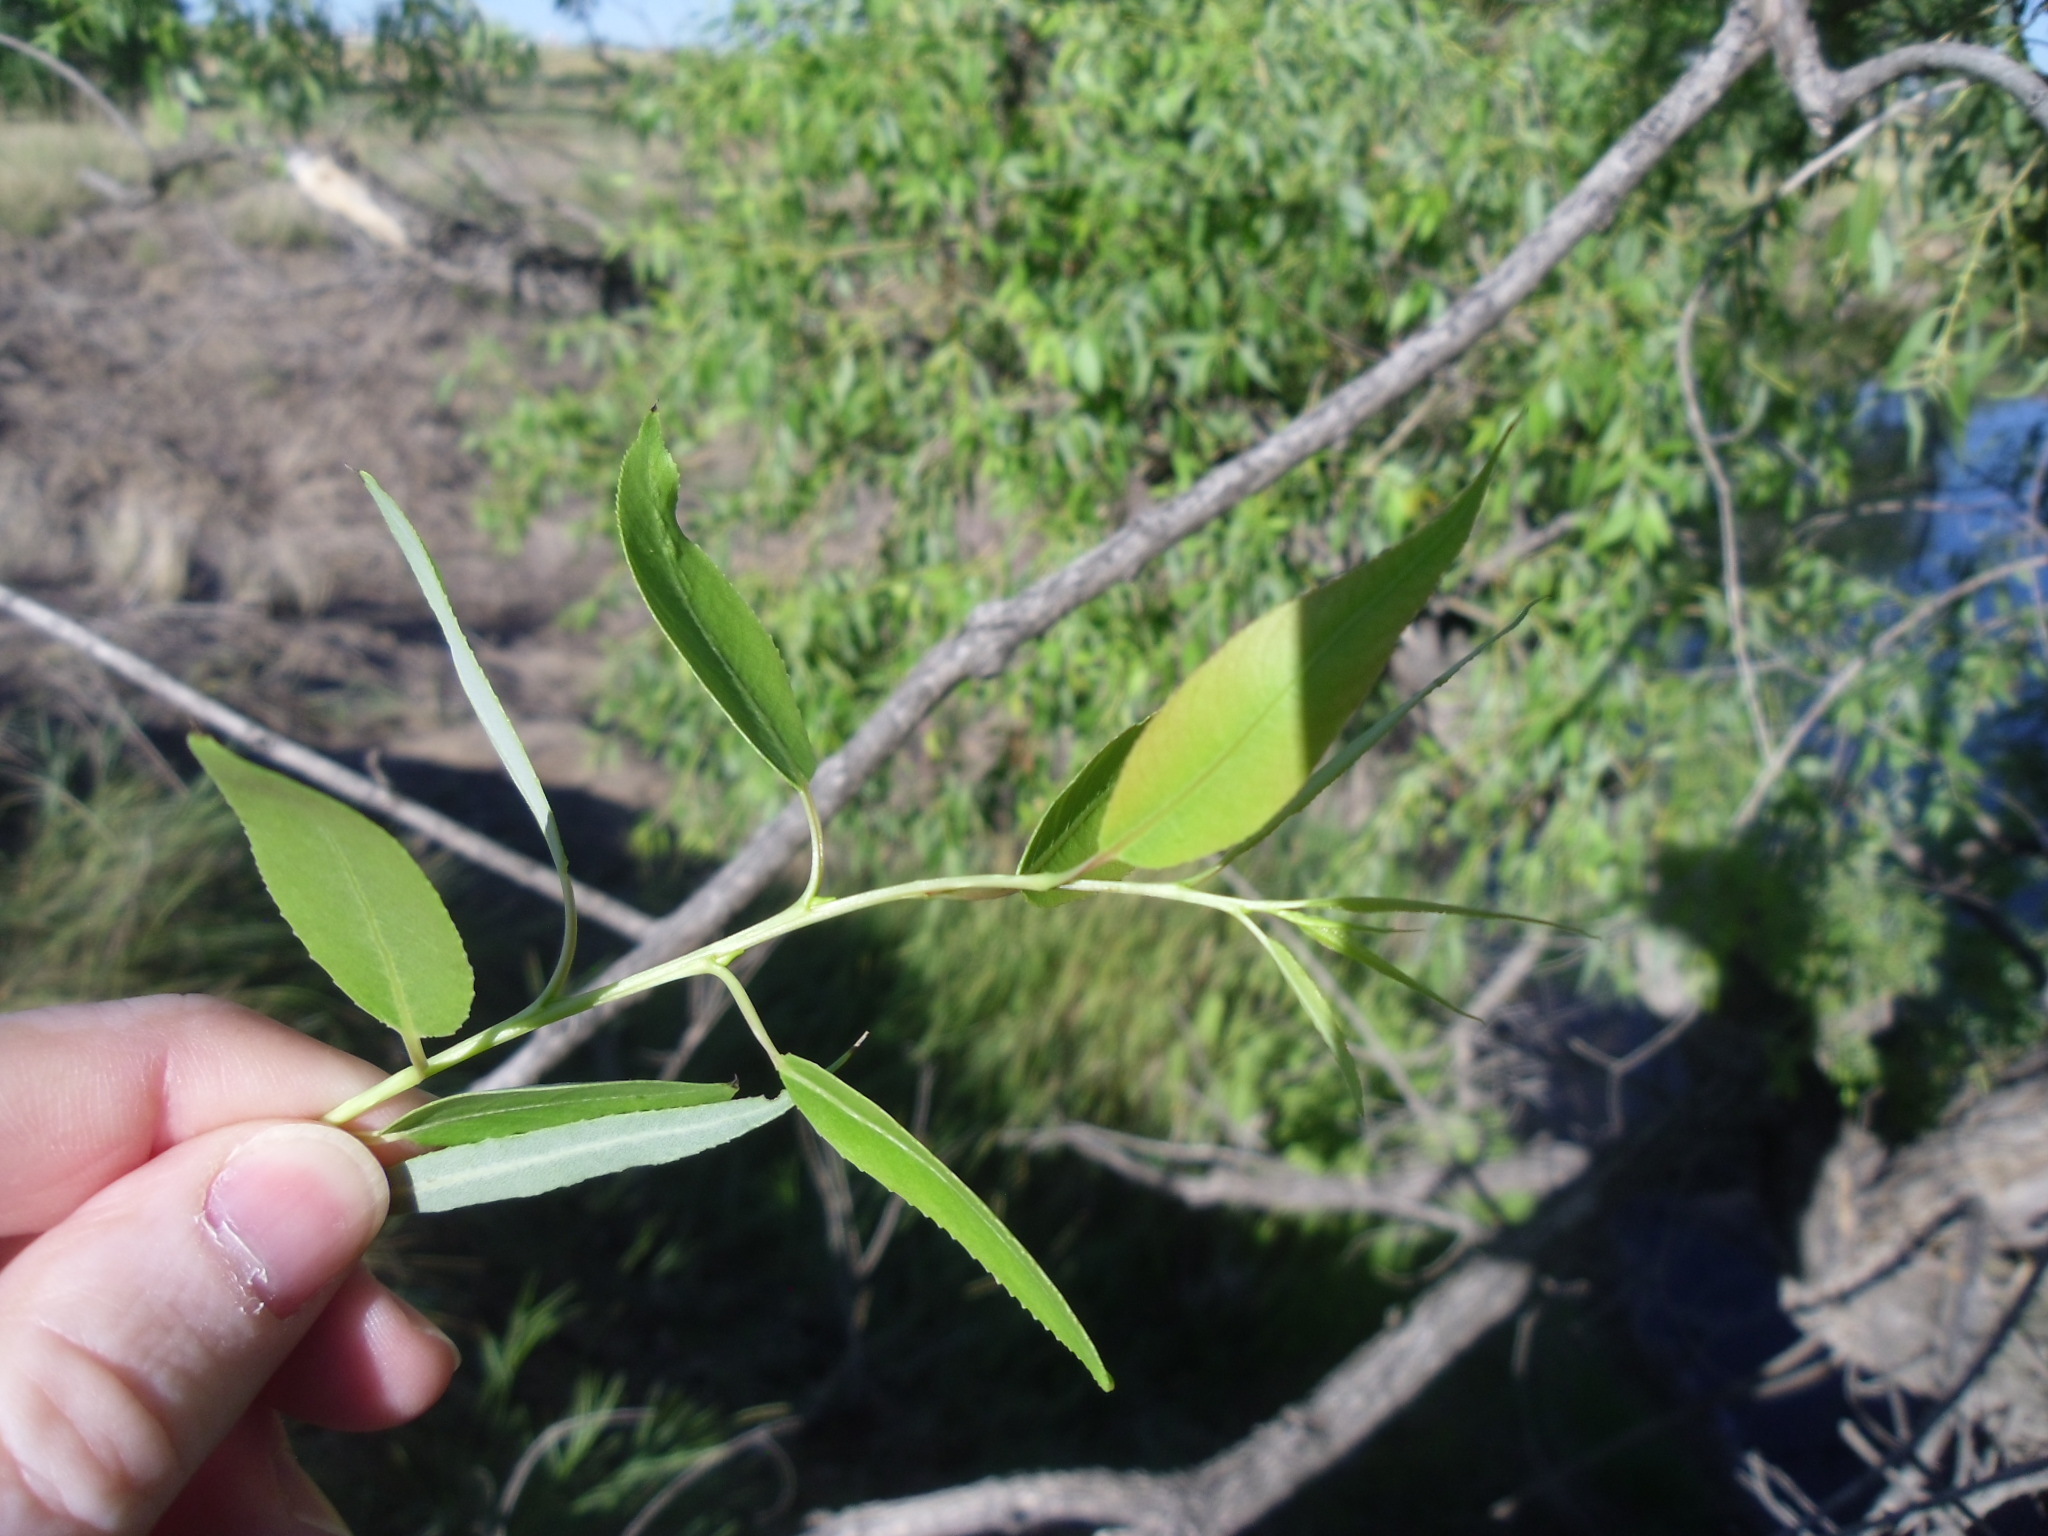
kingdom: Plantae
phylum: Tracheophyta
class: Magnoliopsida
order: Malpighiales
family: Salicaceae
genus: Salix
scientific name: Salix amygdaloides
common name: Peach leaf willow
